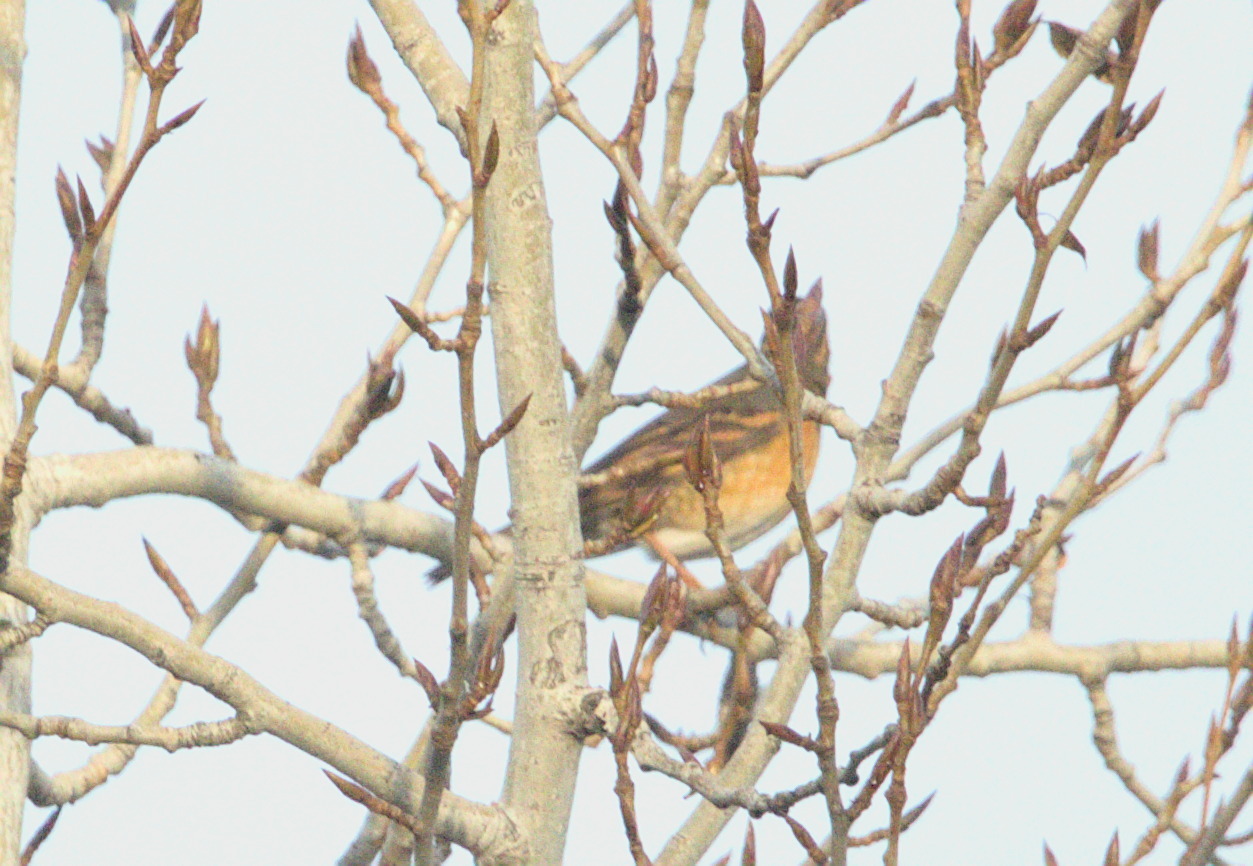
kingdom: Animalia
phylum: Chordata
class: Aves
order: Passeriformes
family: Turdidae
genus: Ixoreus
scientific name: Ixoreus naevius
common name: Varied thrush
